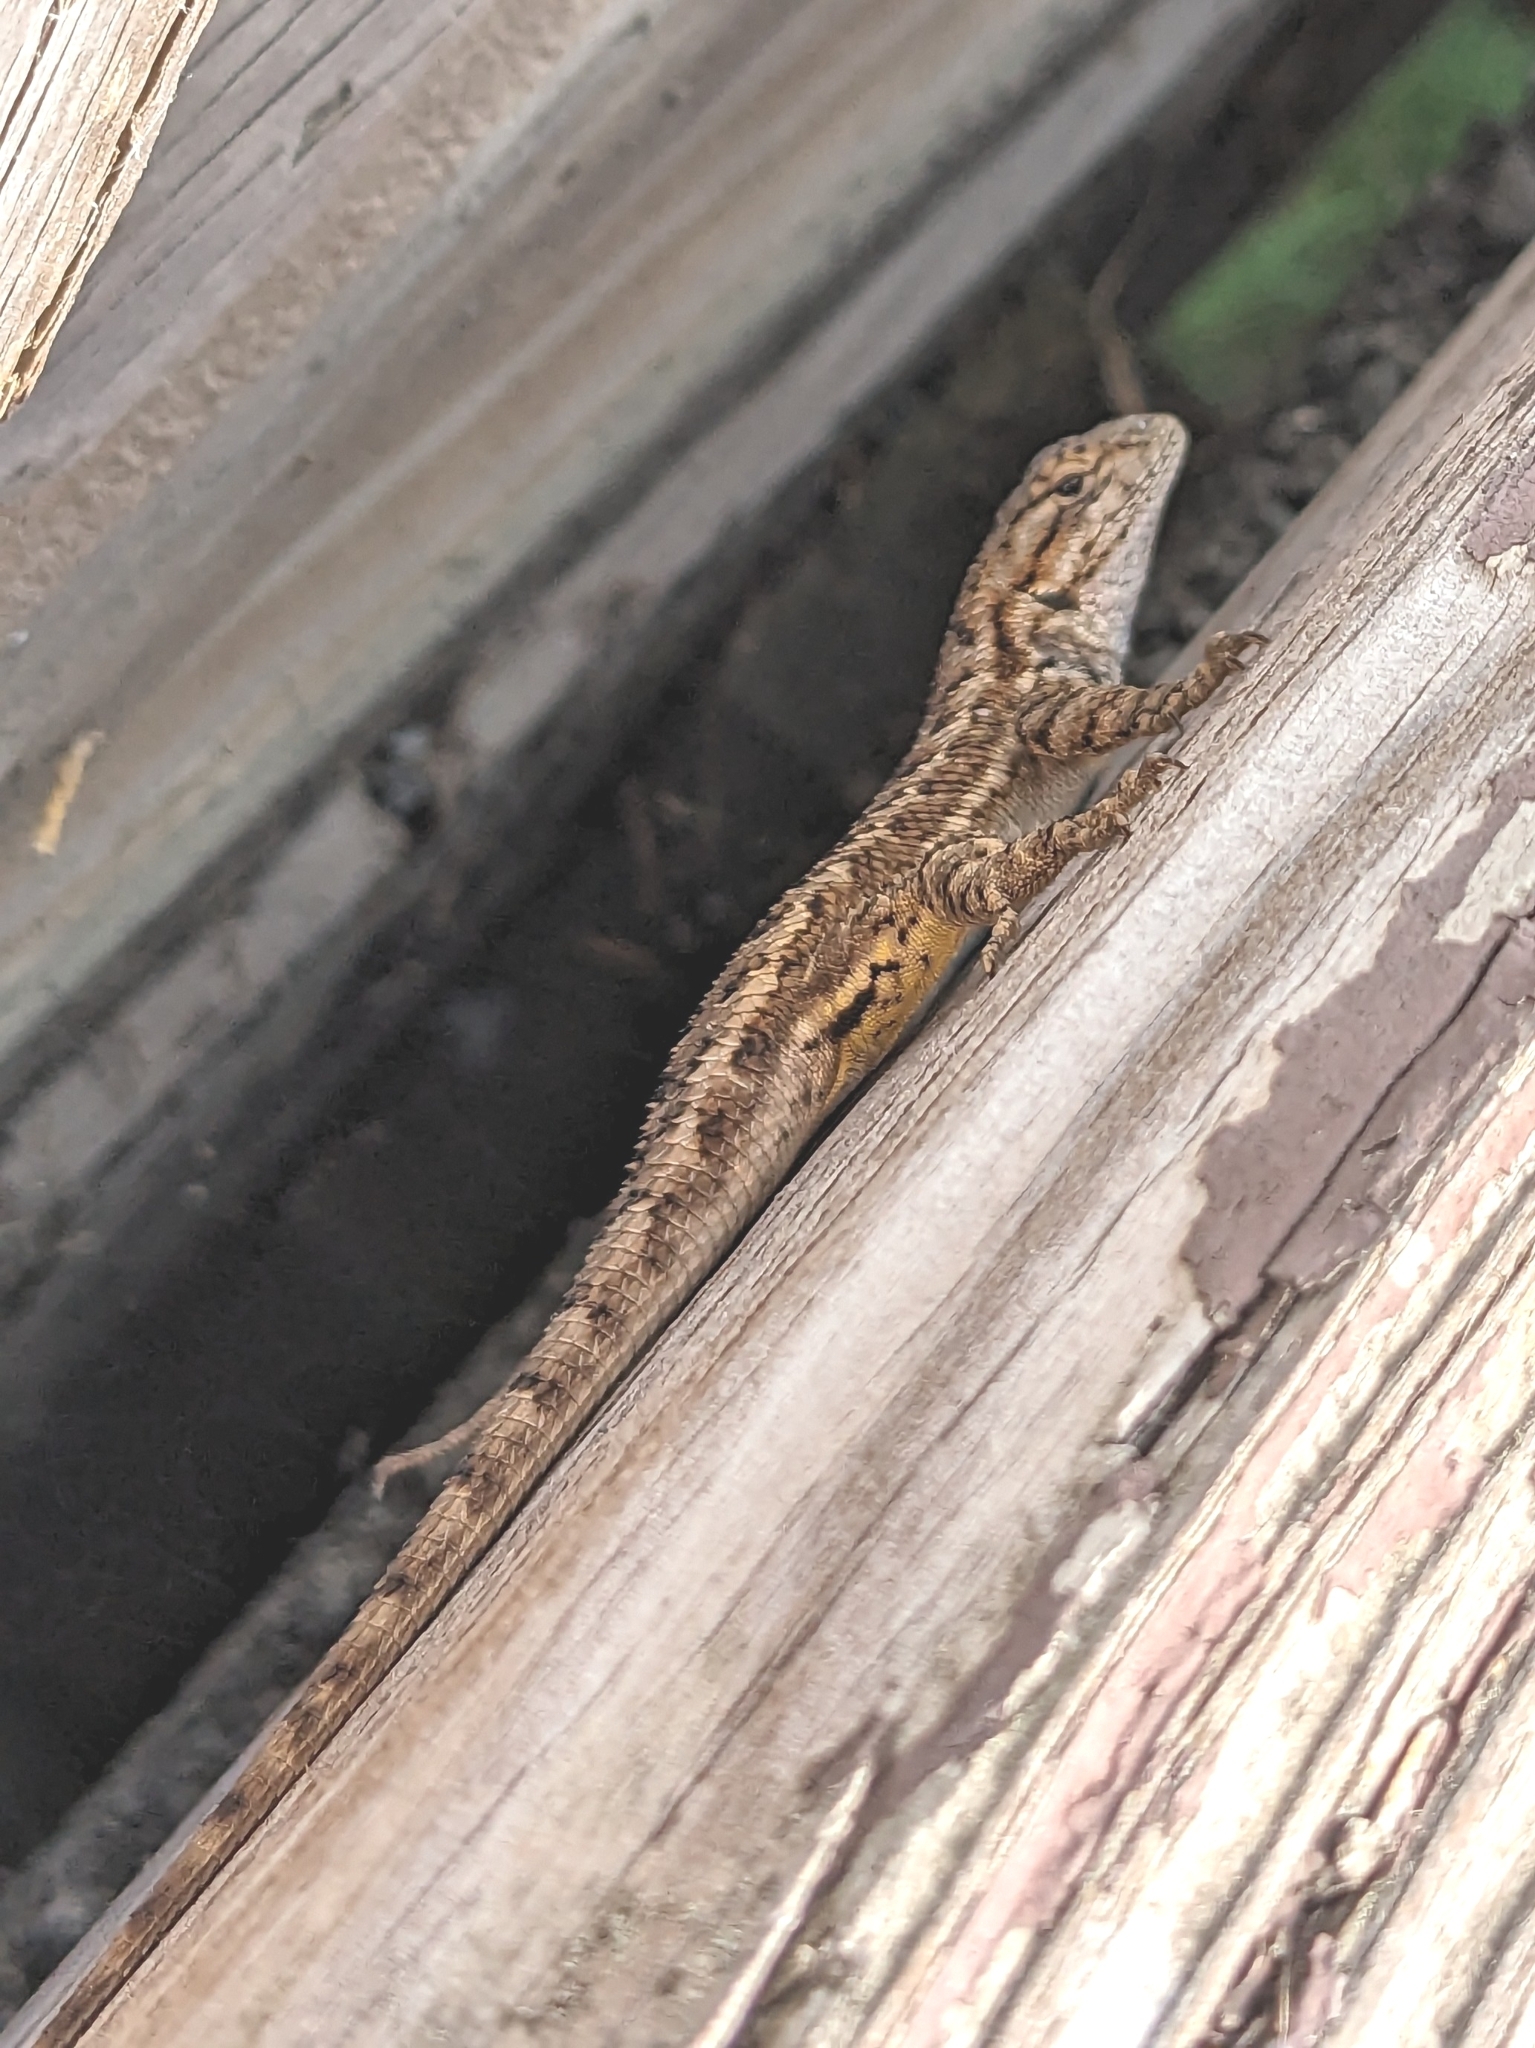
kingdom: Animalia
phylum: Chordata
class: Squamata
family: Phrynosomatidae
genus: Sceloporus
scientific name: Sceloporus occidentalis
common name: Western fence lizard
